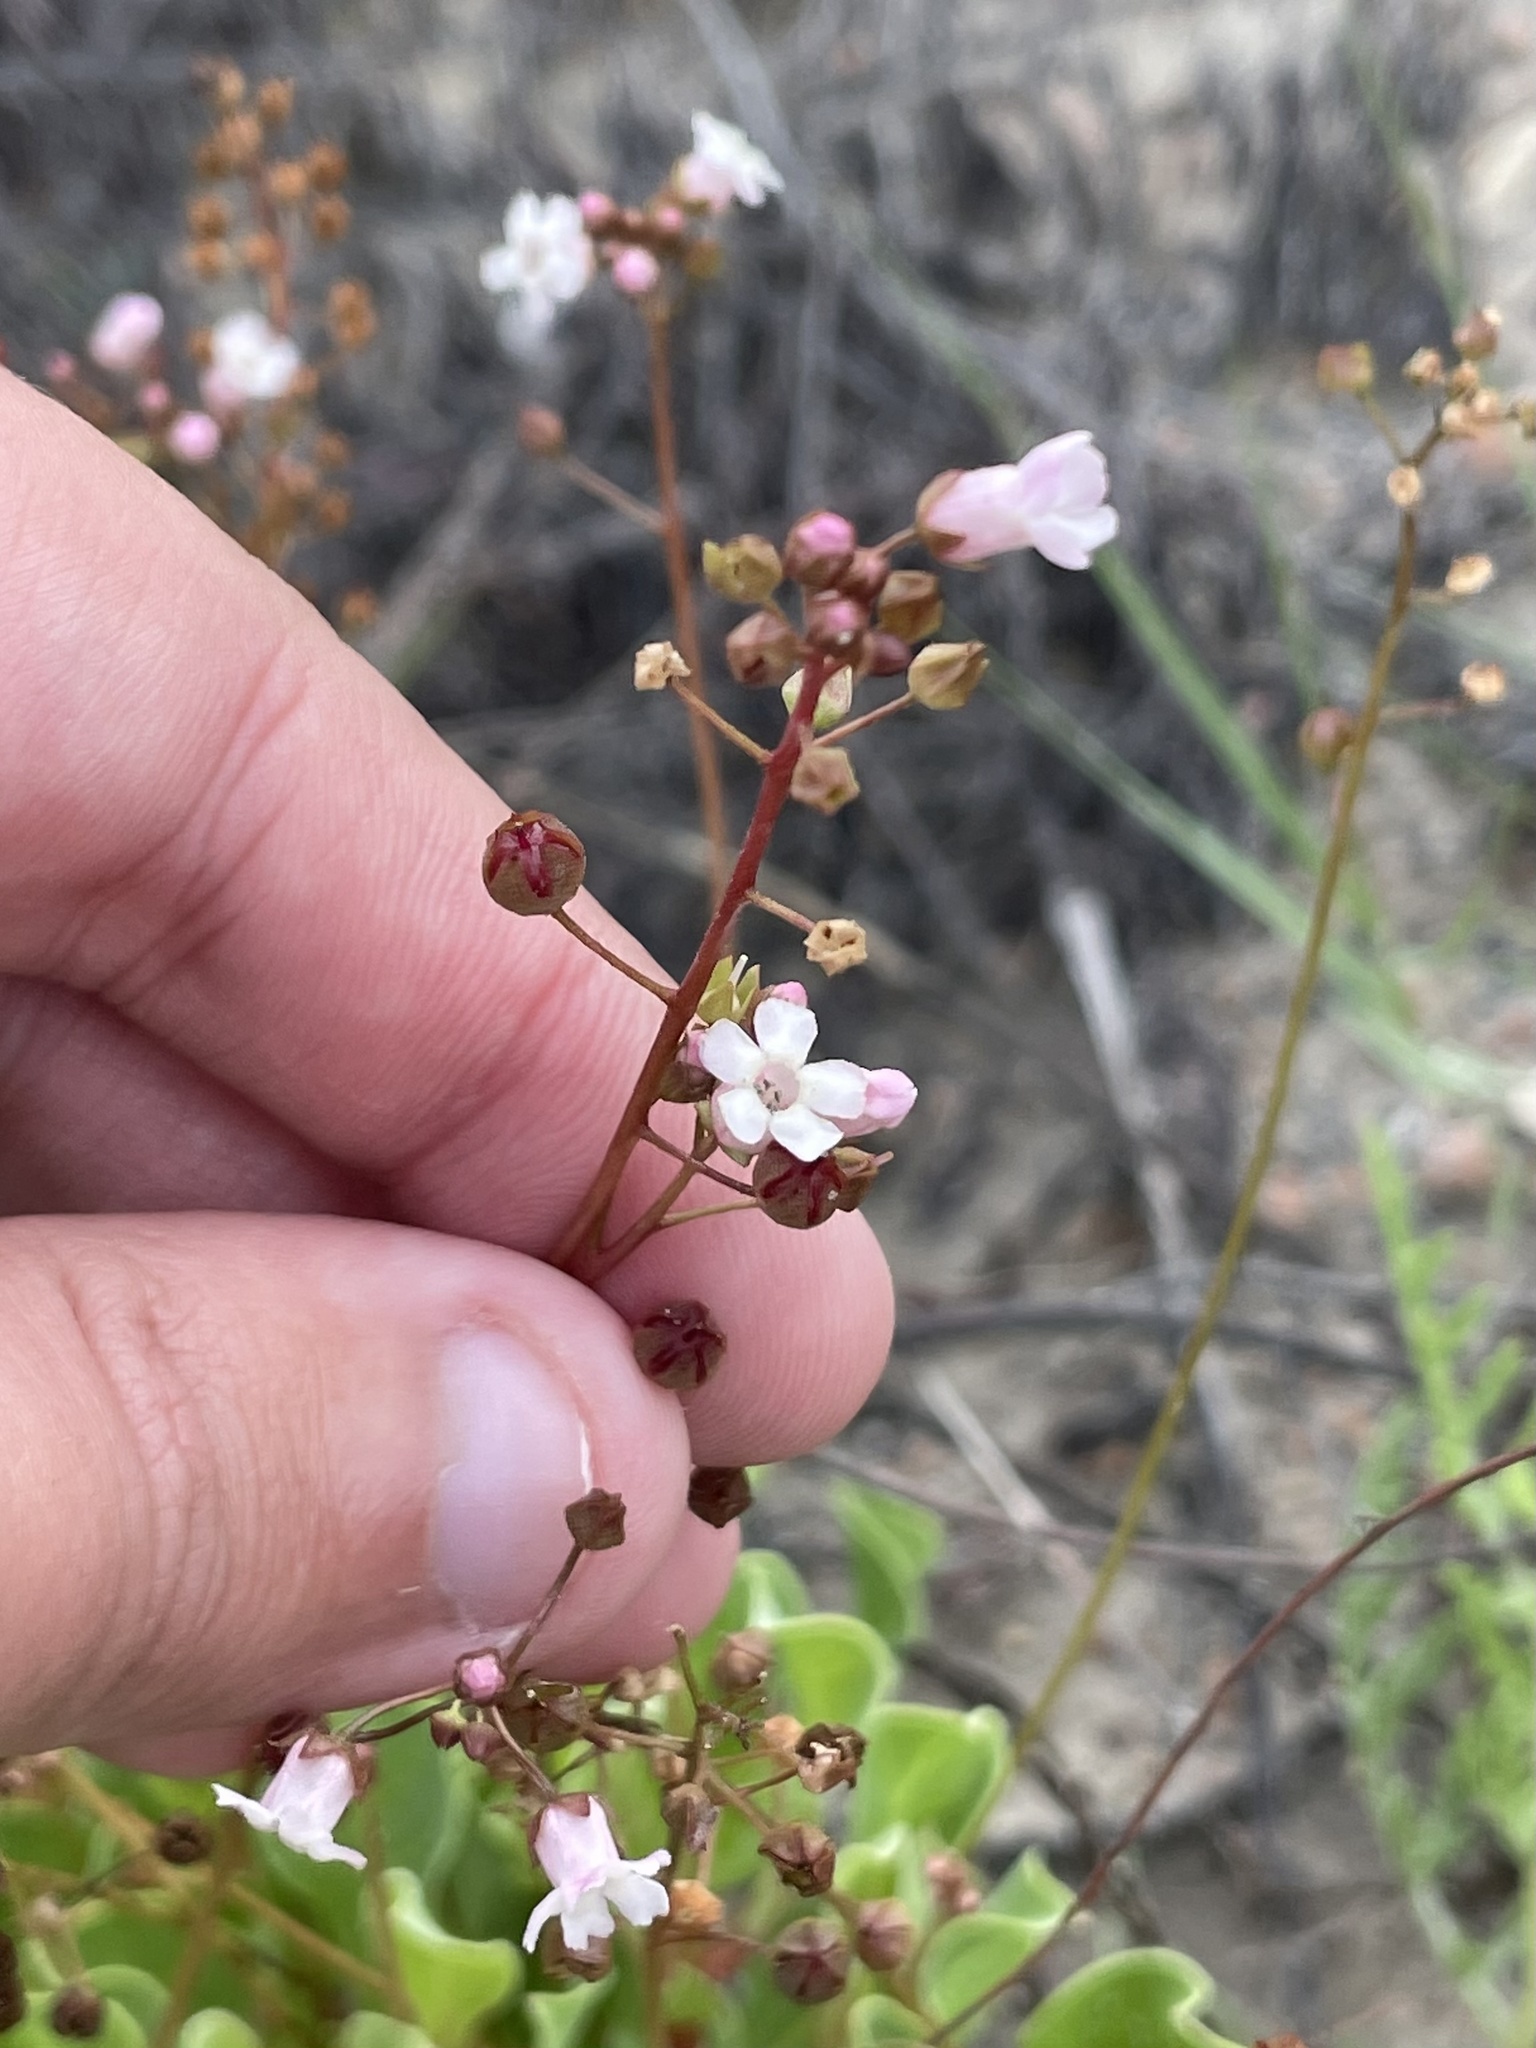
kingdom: Plantae
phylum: Tracheophyta
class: Magnoliopsida
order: Ericales
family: Primulaceae
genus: Samolus
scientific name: Samolus ebracteatus
